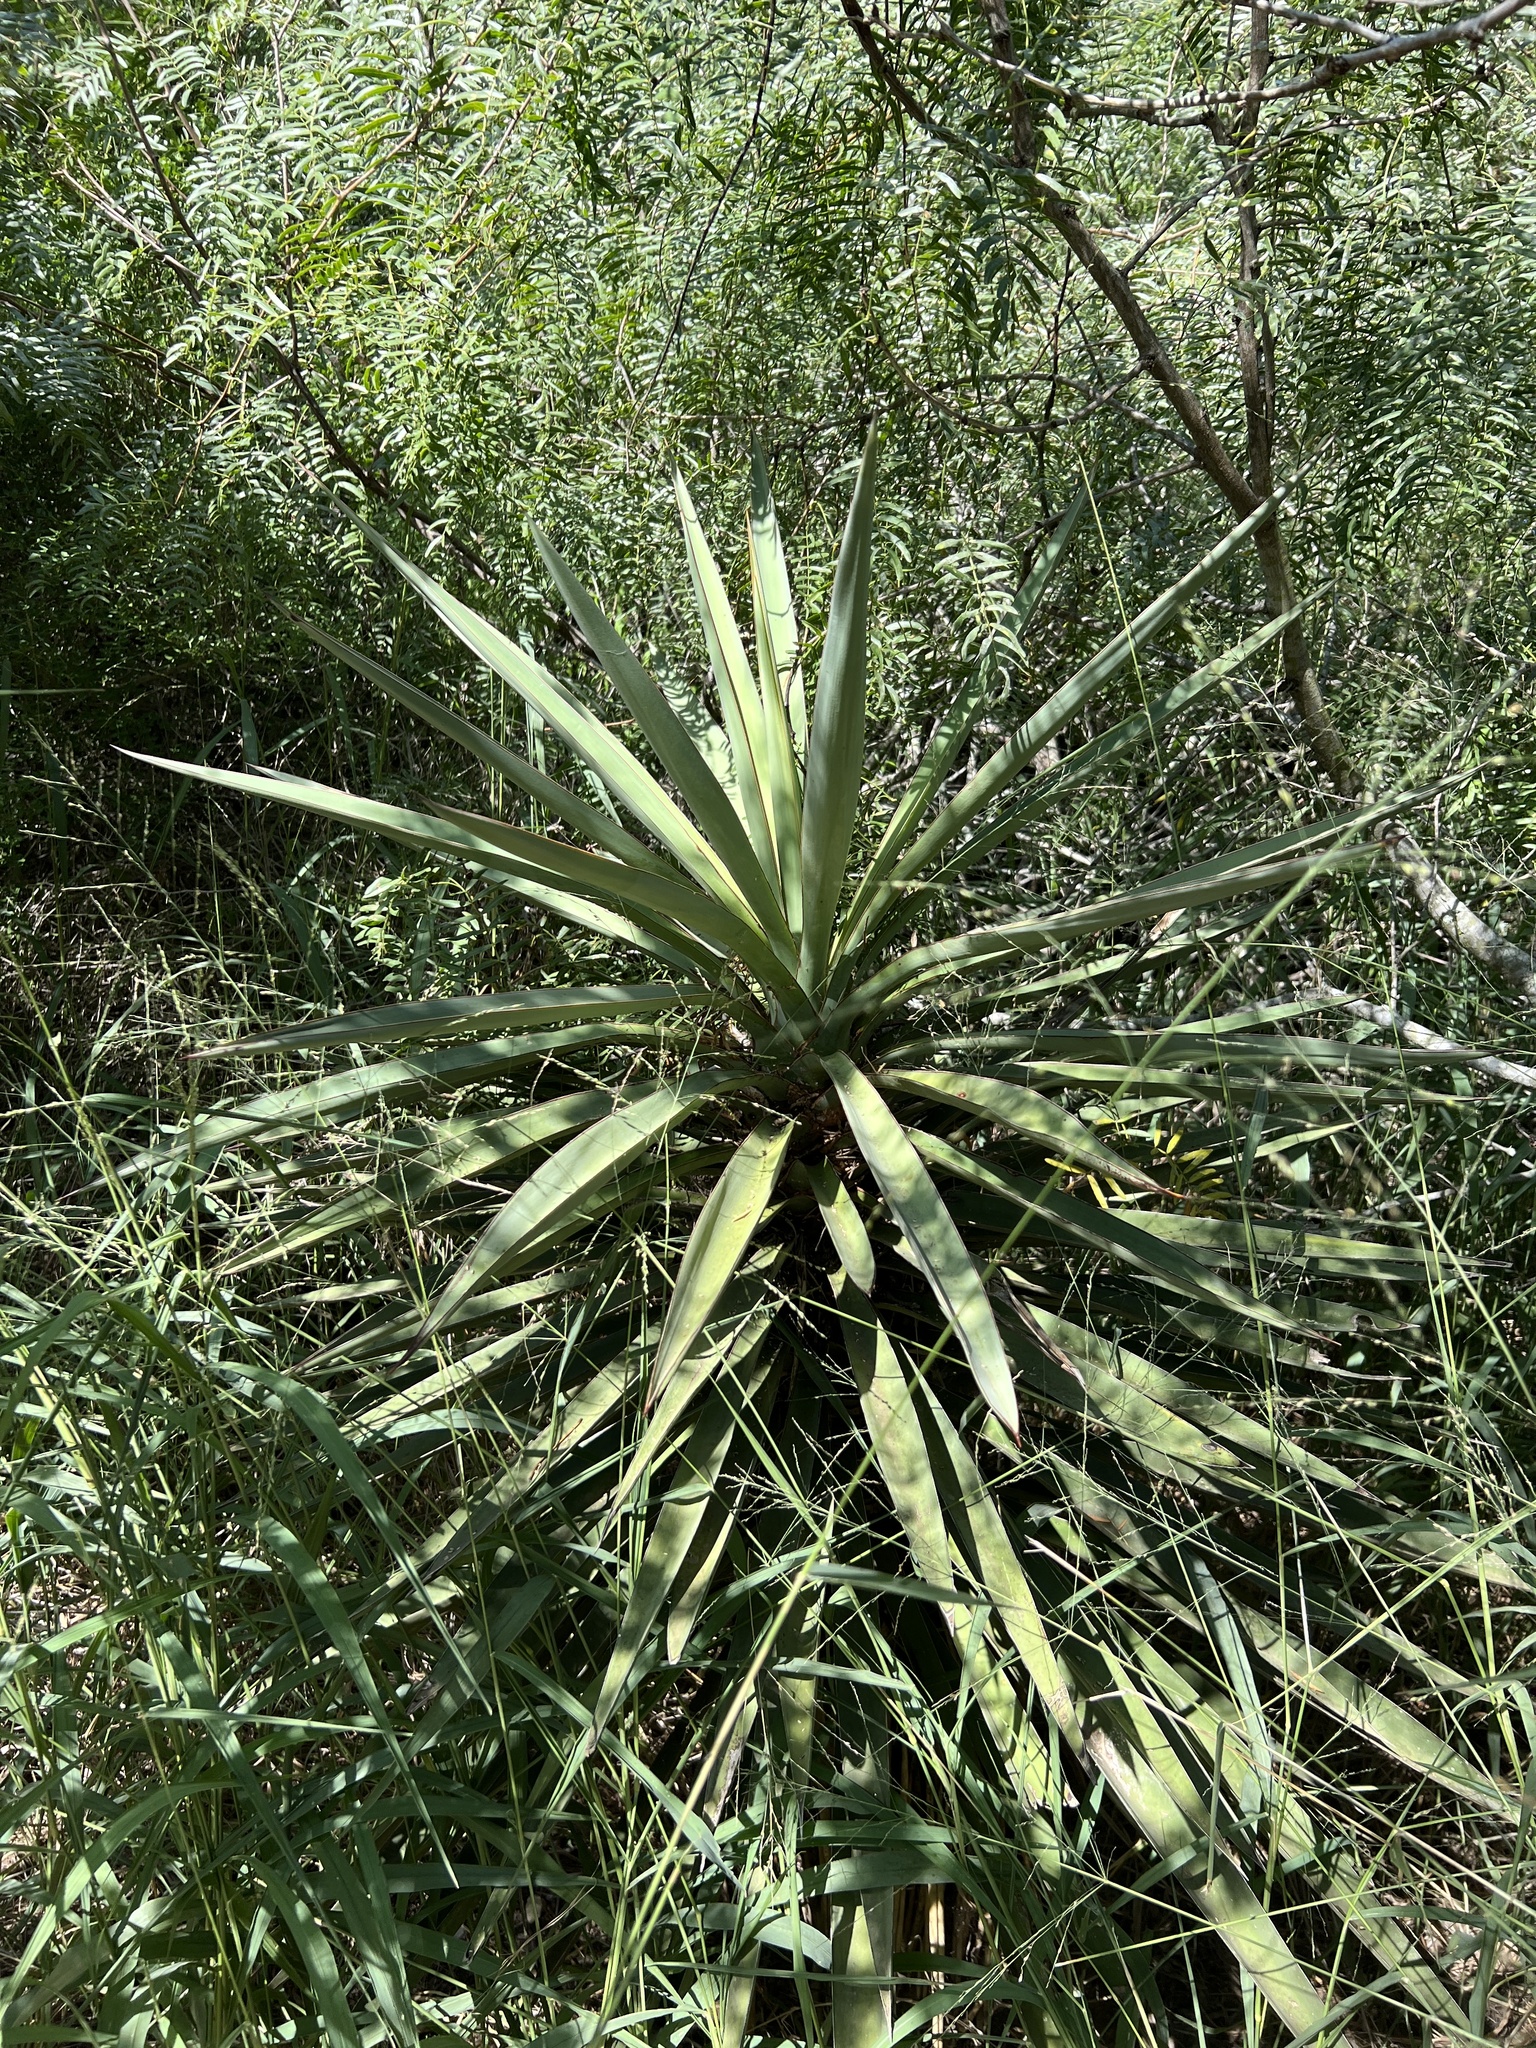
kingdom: Plantae
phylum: Tracheophyta
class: Liliopsida
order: Asparagales
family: Asparagaceae
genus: Yucca
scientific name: Yucca treculiana
